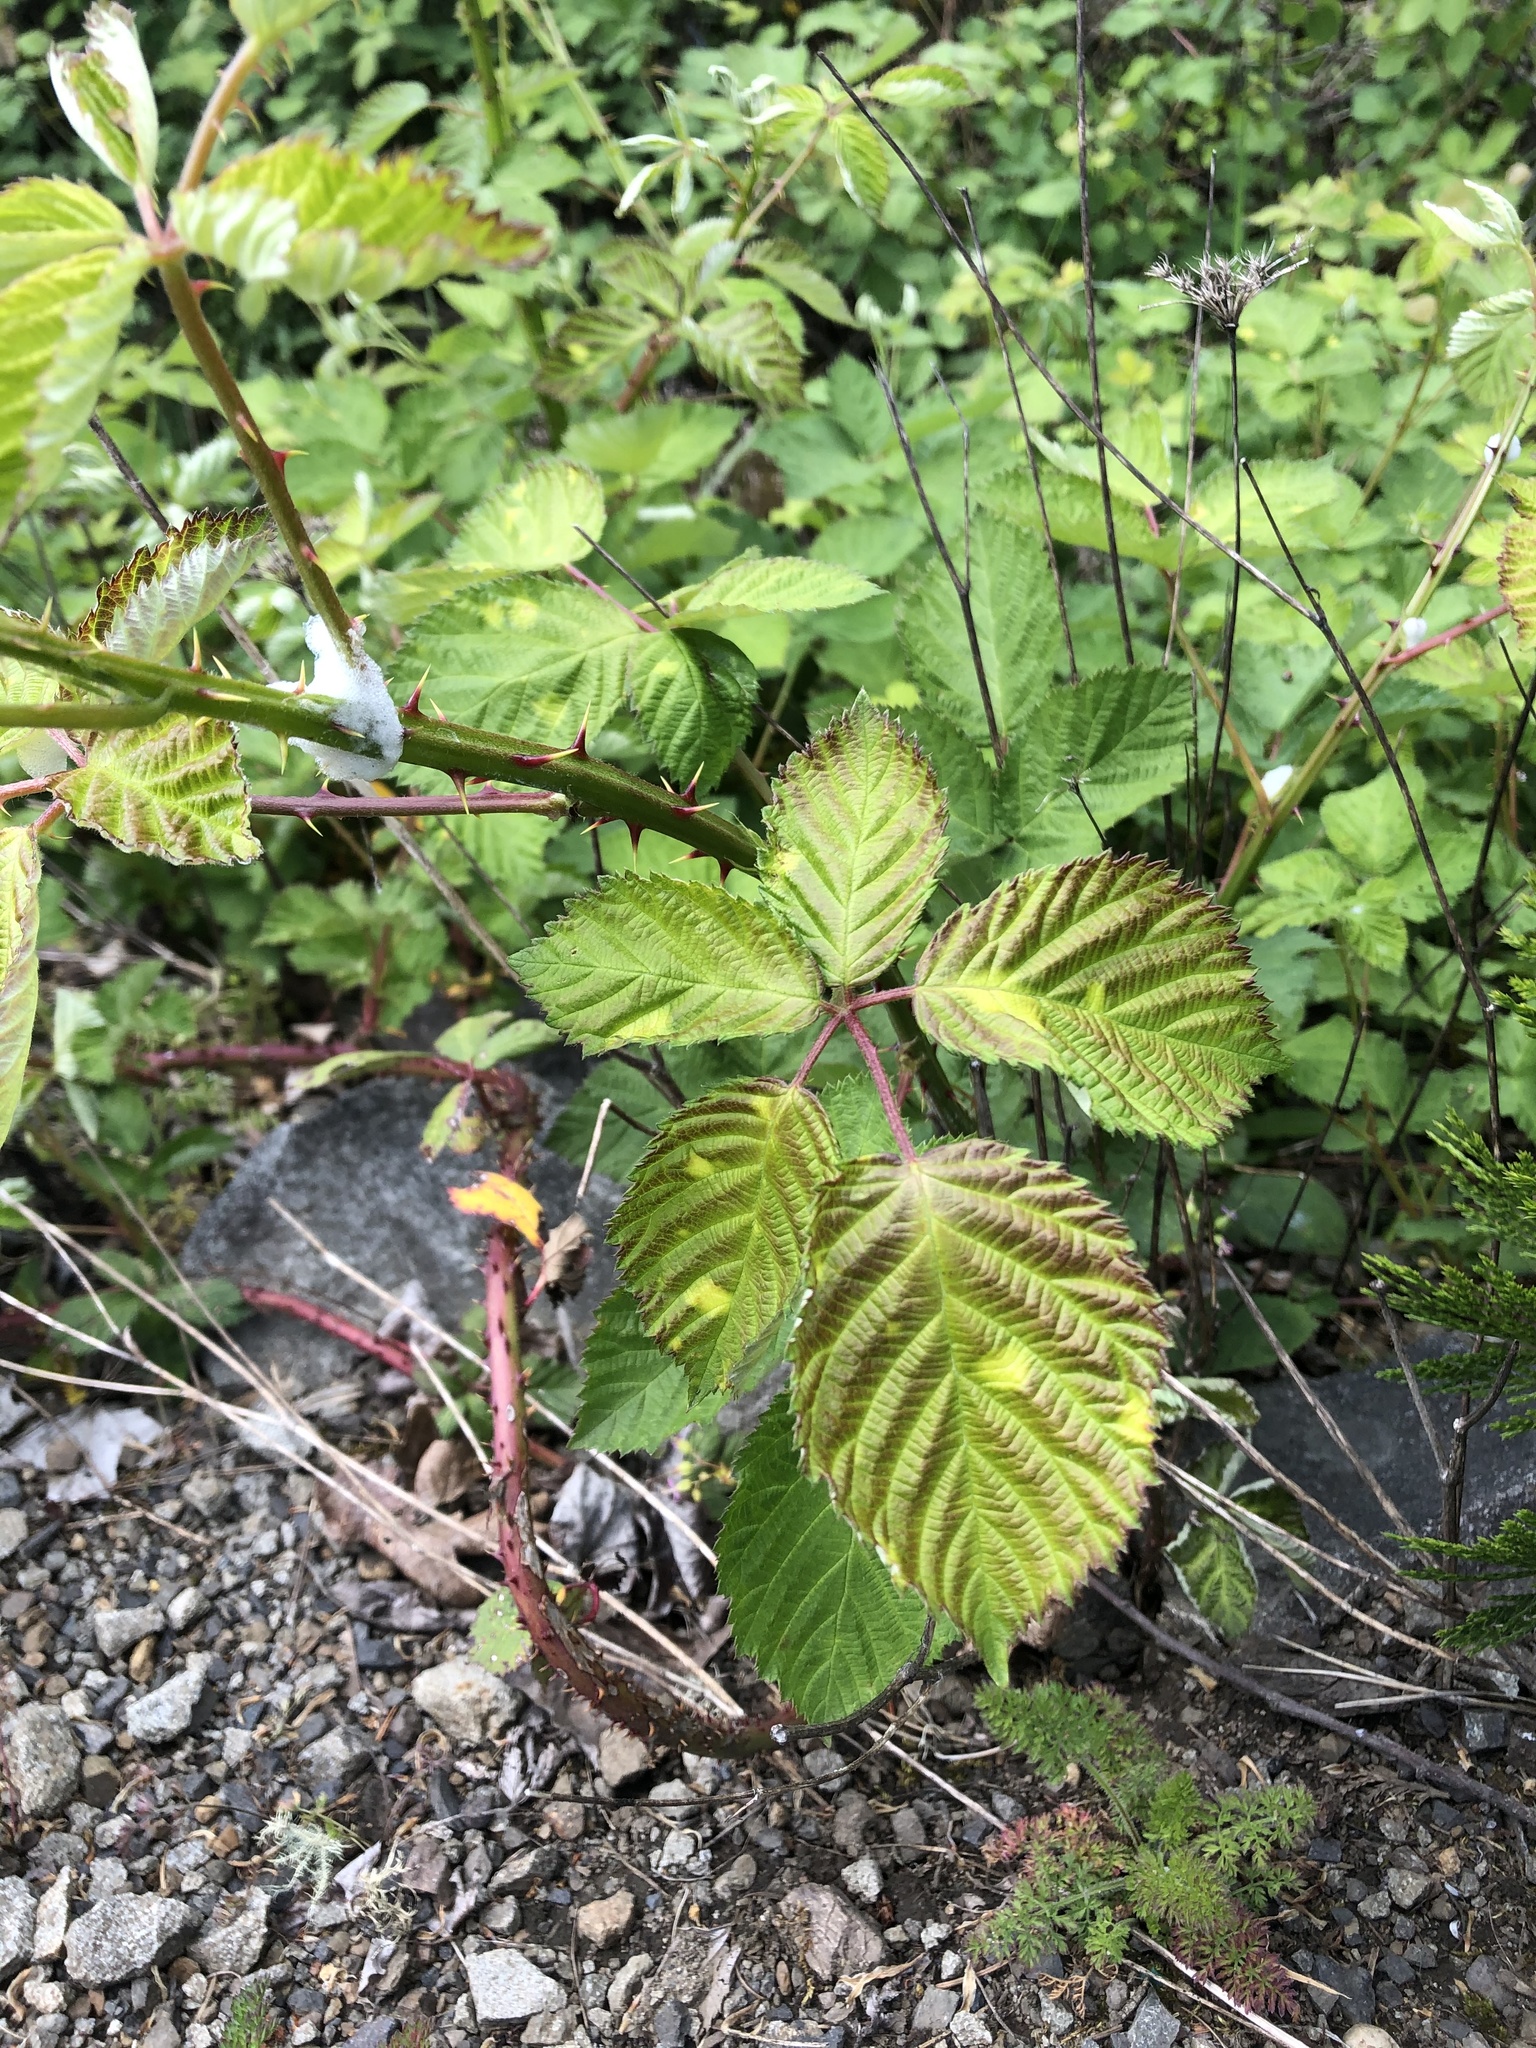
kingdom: Plantae
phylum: Tracheophyta
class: Magnoliopsida
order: Rosales
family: Rosaceae
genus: Rubus
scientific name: Rubus bifrons
